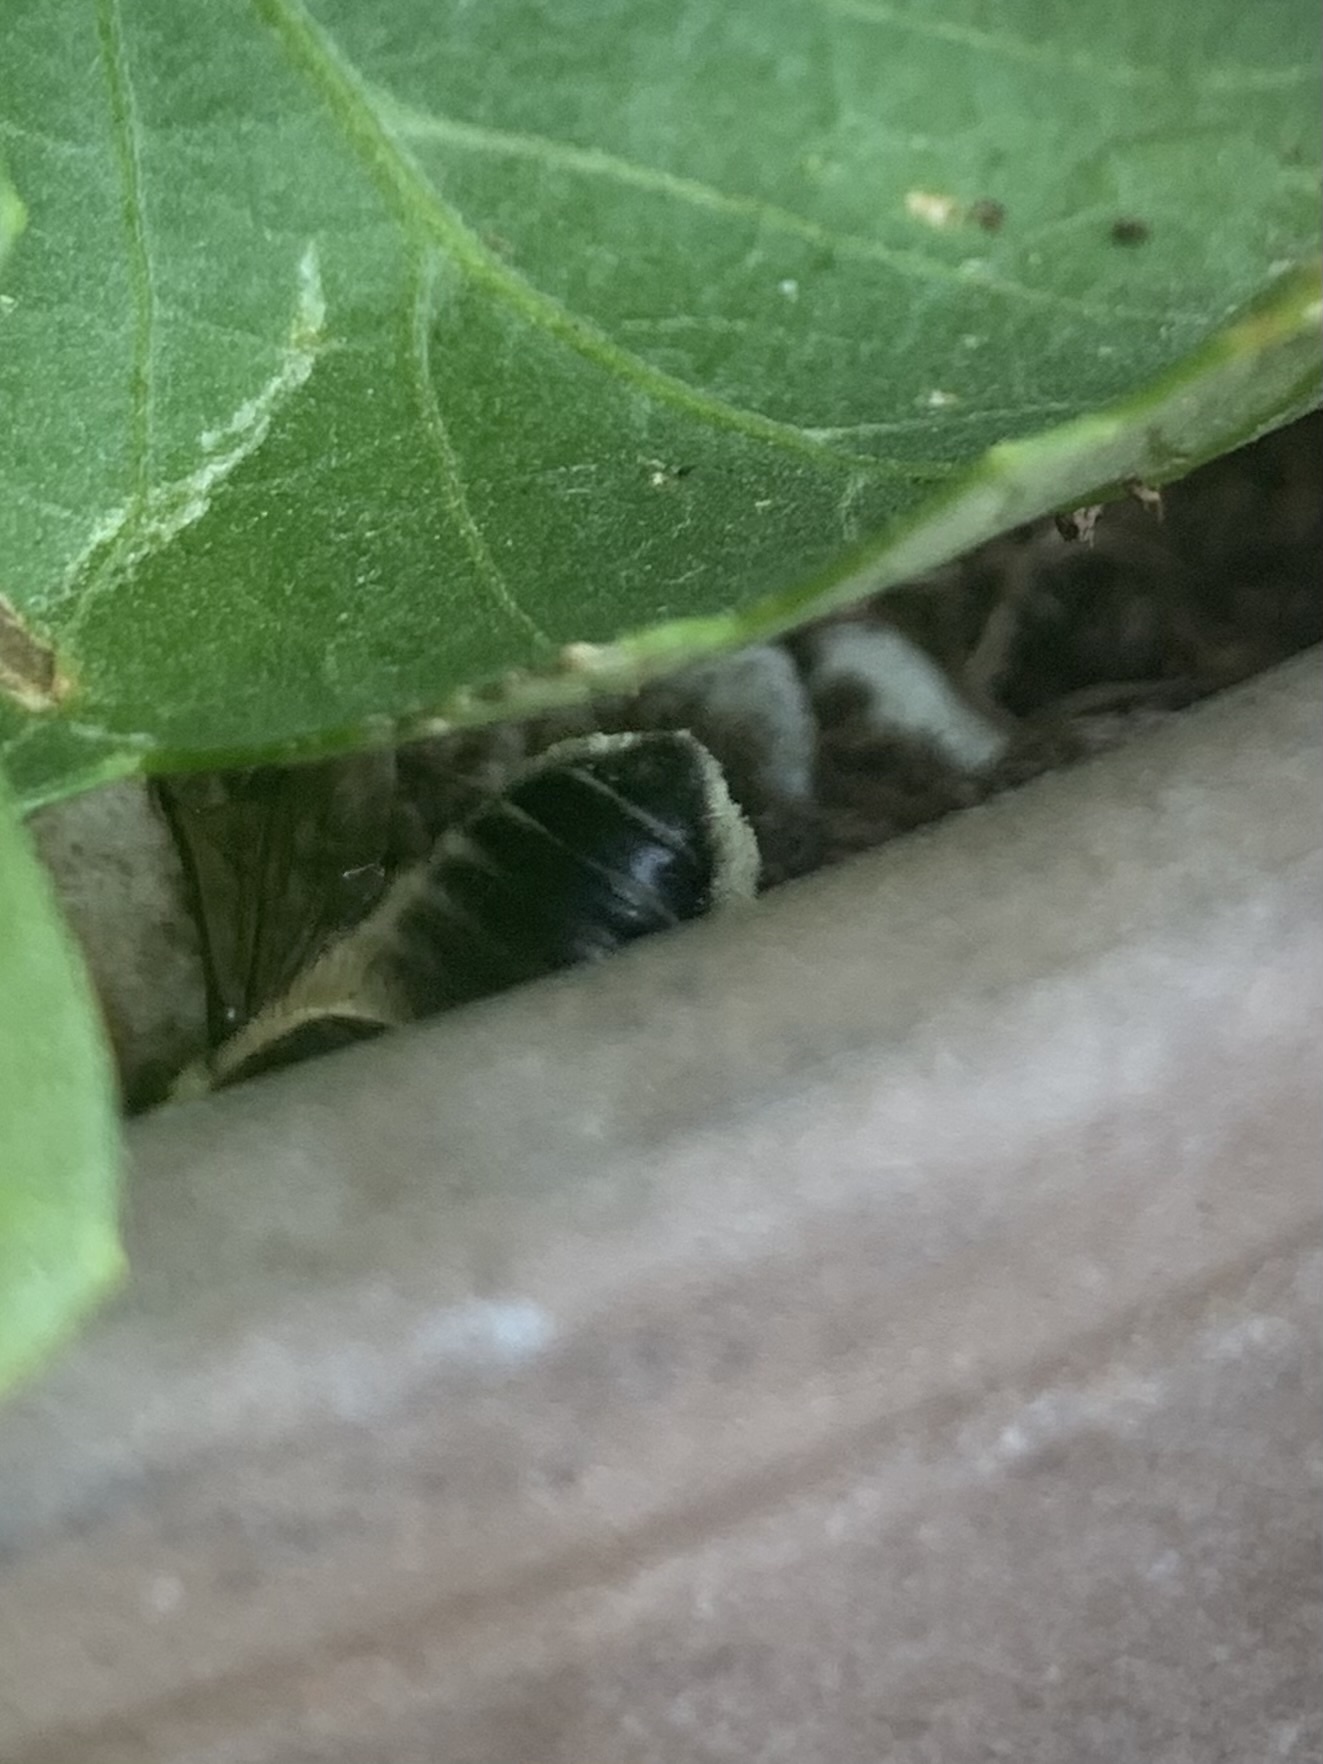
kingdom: Animalia
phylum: Arthropoda
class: Insecta
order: Hymenoptera
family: Megachilidae
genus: Megachile
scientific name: Megachile willughbiella
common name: Willughby's leafcutter bee
